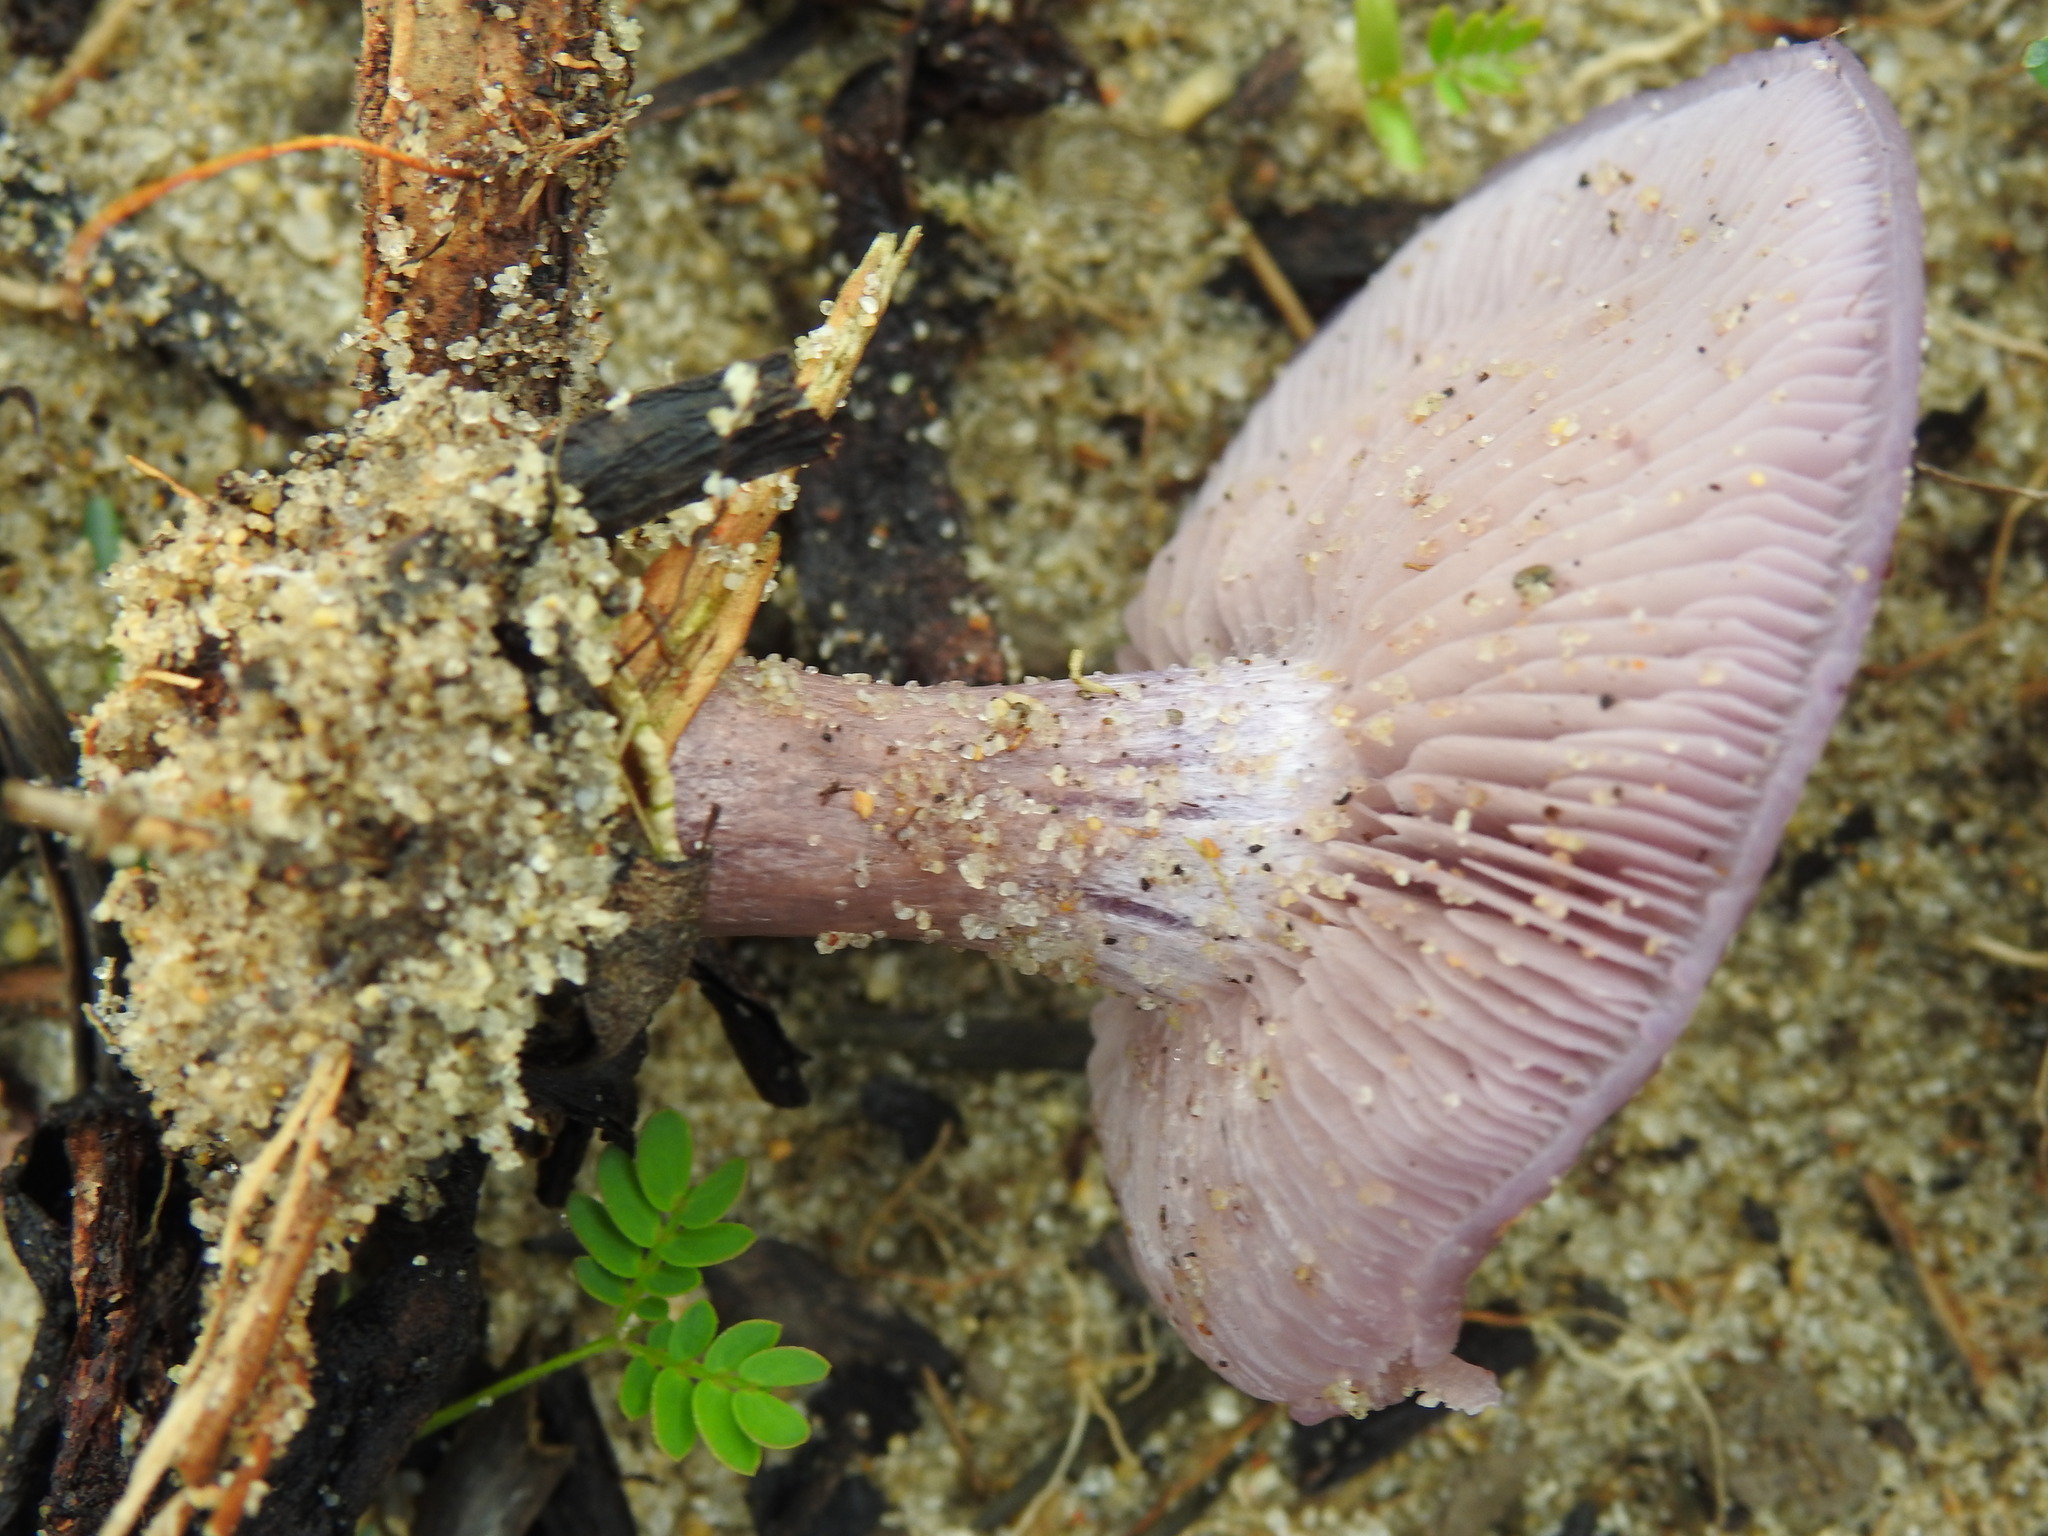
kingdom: Fungi
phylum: Basidiomycota
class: Agaricomycetes
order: Agaricales
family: Tricholomataceae
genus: Collybia
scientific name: Collybia
